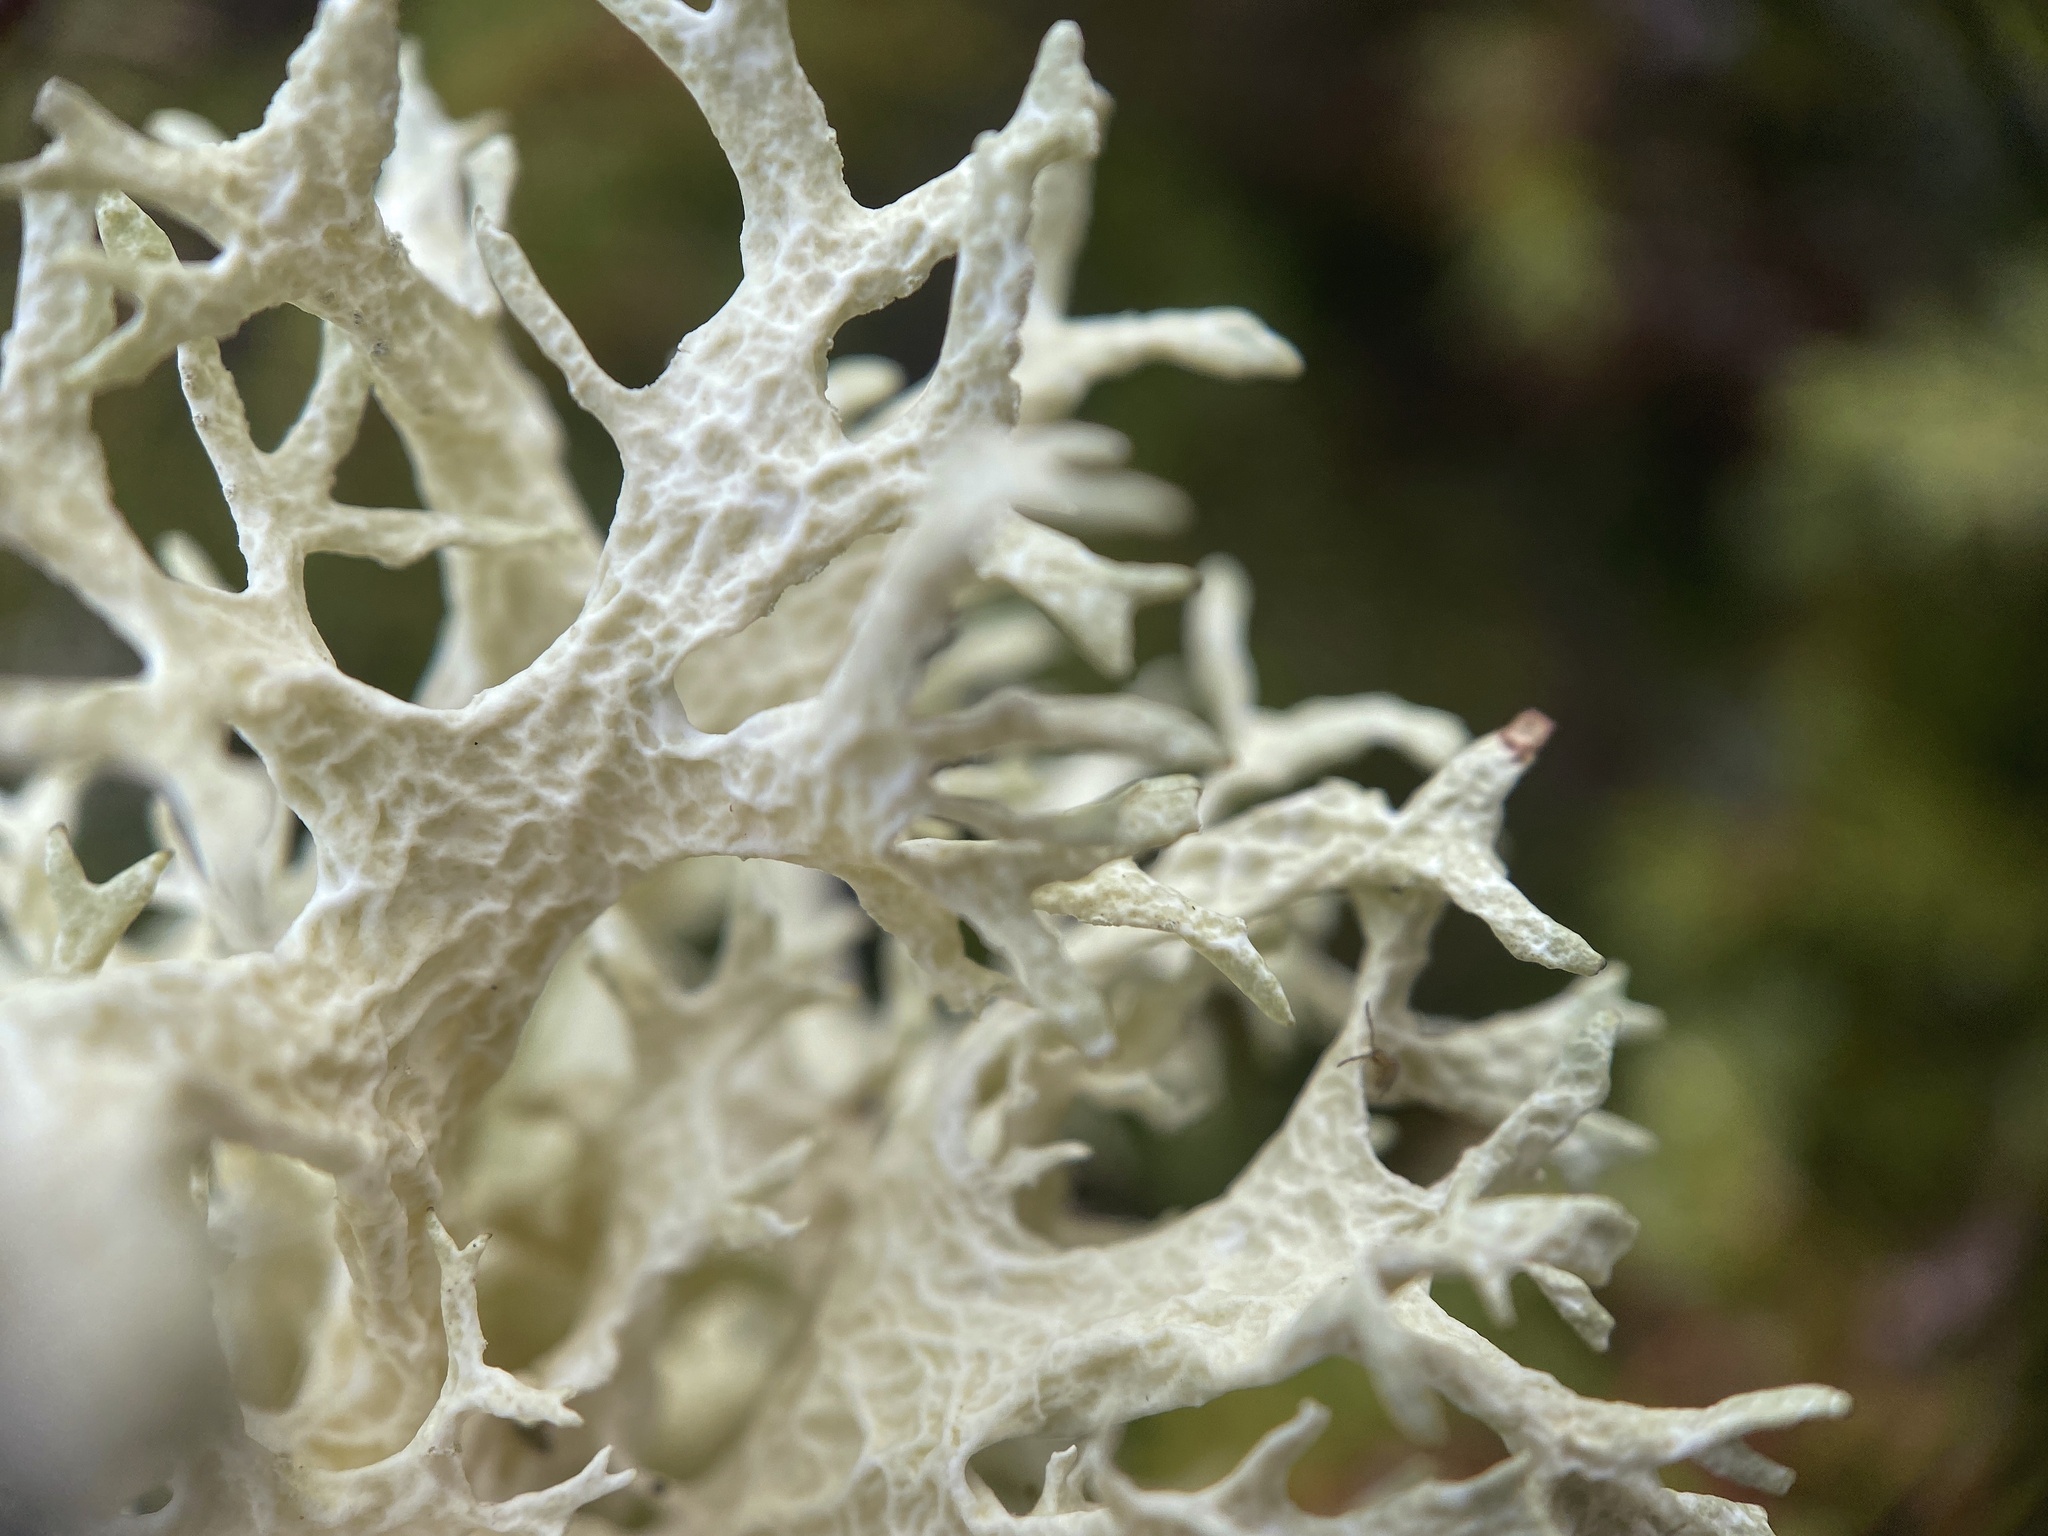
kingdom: Fungi
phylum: Ascomycota
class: Lecanoromycetes
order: Lecanorales
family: Parmeliaceae
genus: Evernia
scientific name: Evernia prunastri
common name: Oak moss
